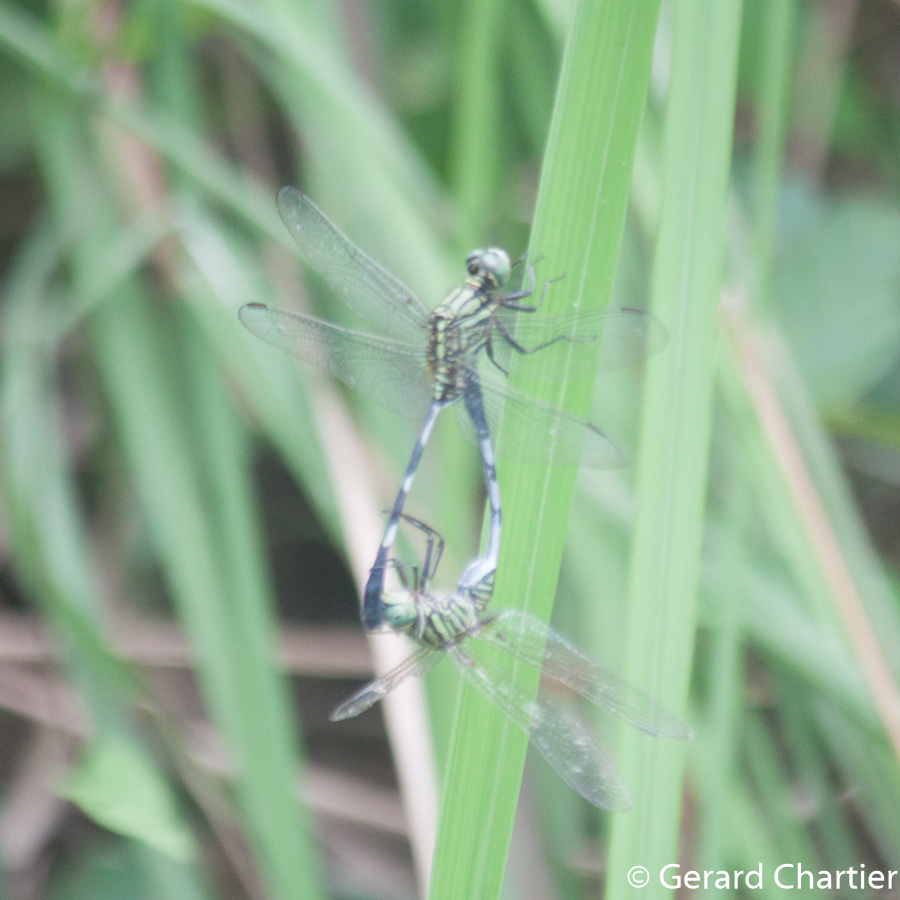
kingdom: Animalia
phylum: Arthropoda
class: Insecta
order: Odonata
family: Libellulidae
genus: Orthetrum
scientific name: Orthetrum sabina
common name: Slender skimmer
